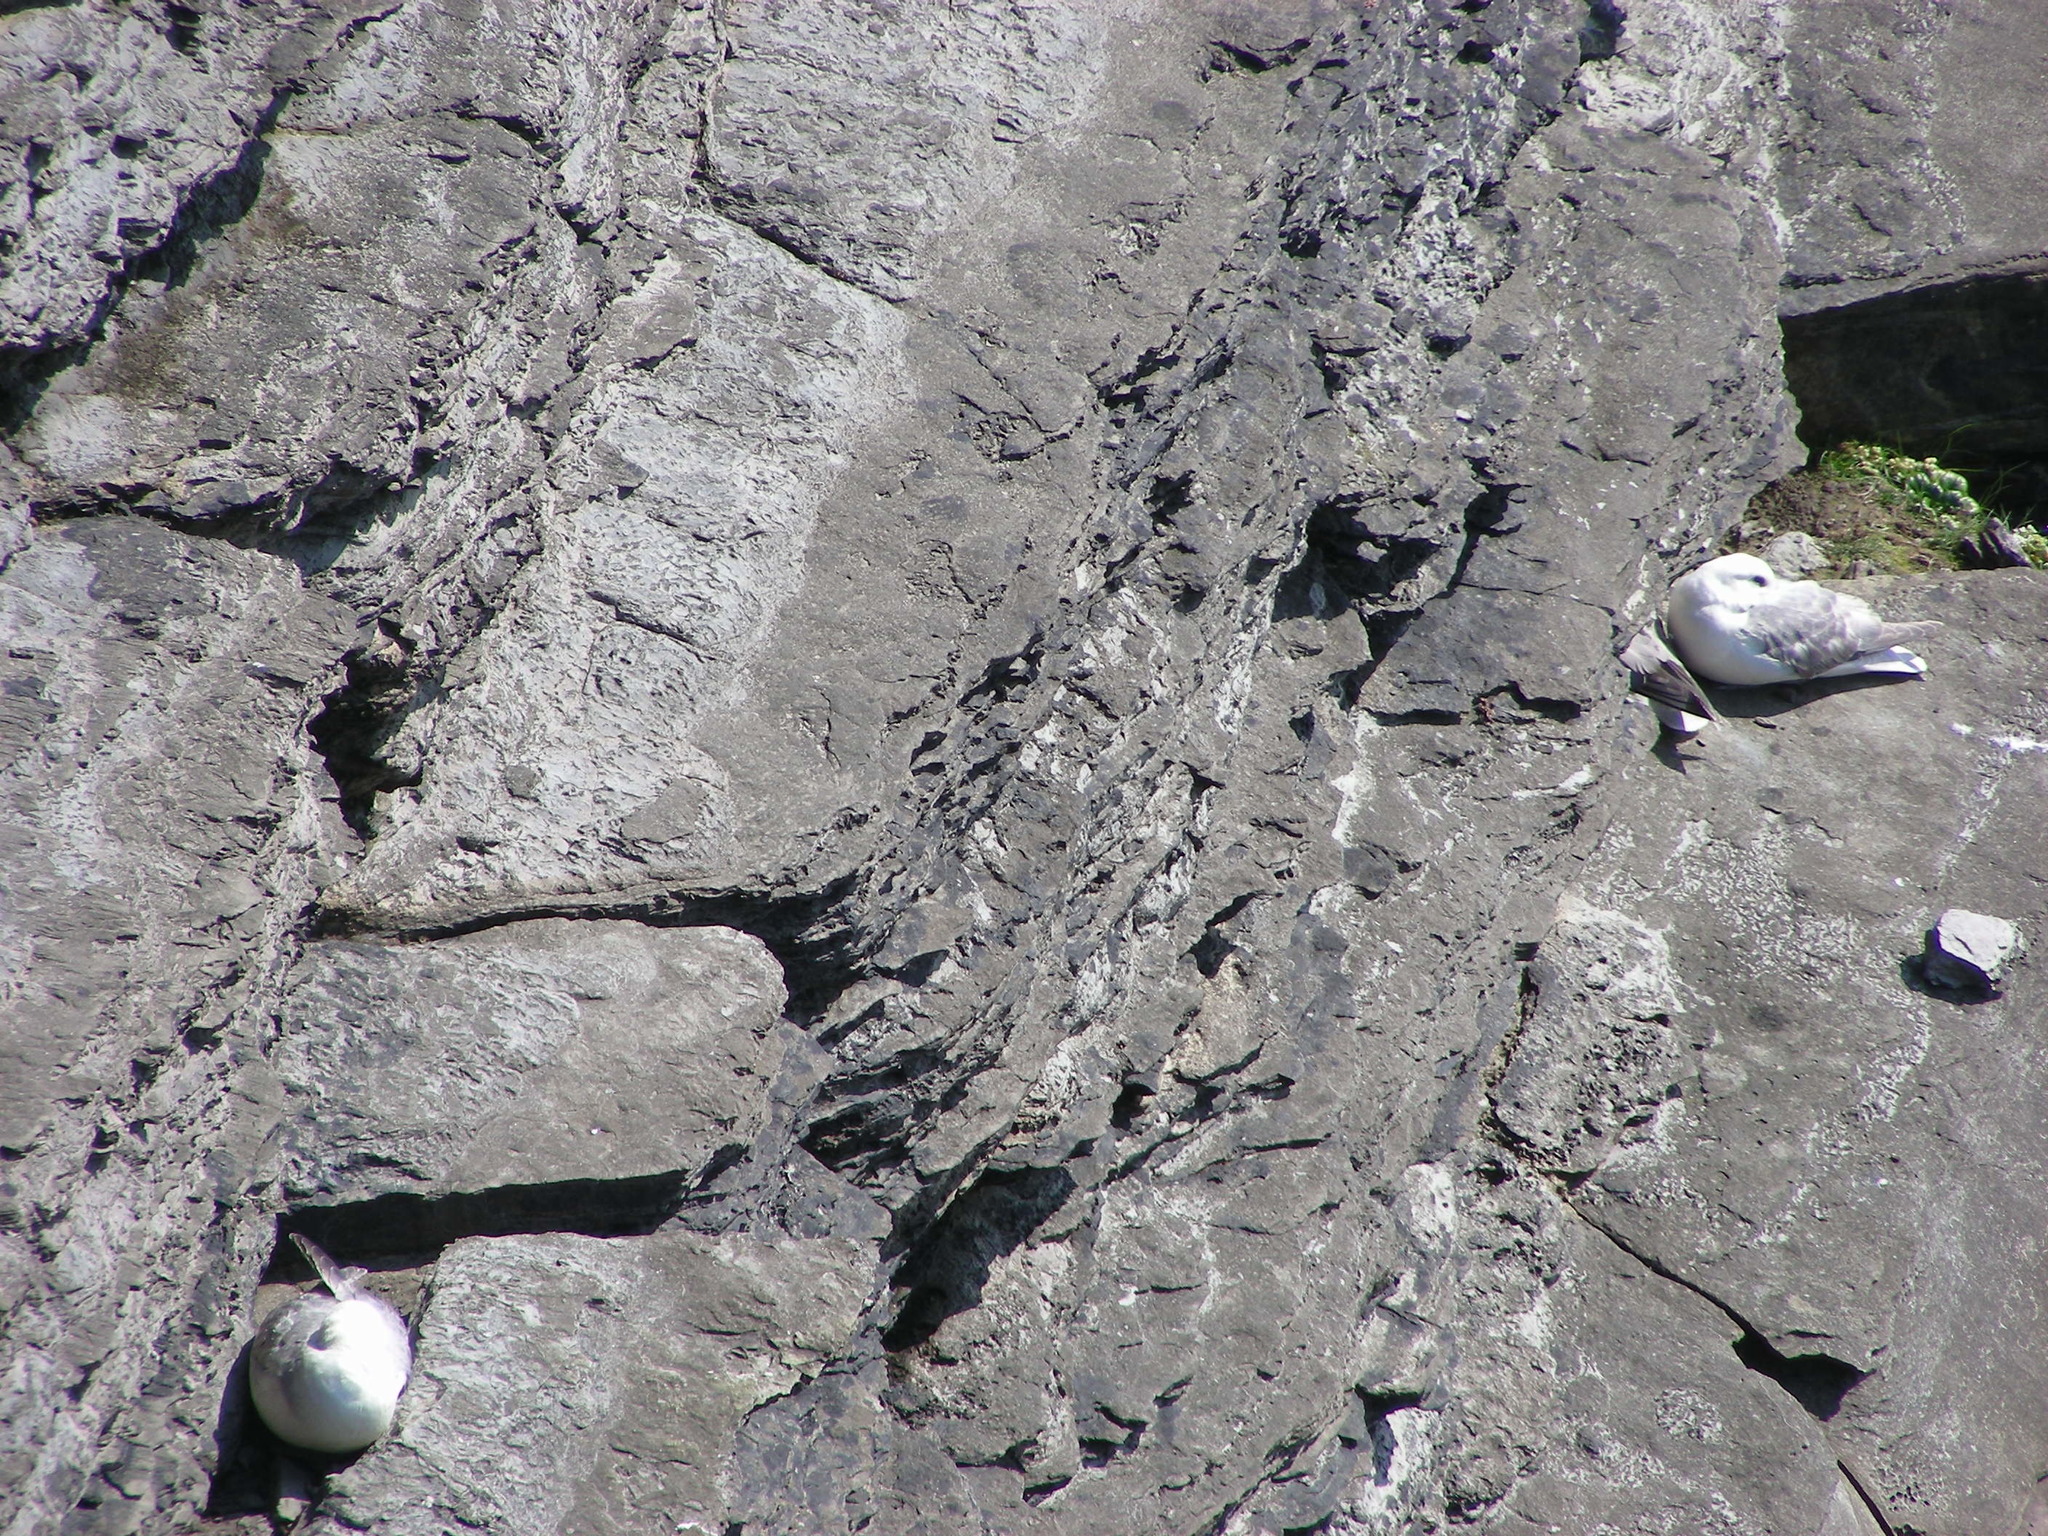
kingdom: Animalia
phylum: Chordata
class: Aves
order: Procellariiformes
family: Procellariidae
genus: Fulmarus
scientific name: Fulmarus glacialis
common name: Northern fulmar
